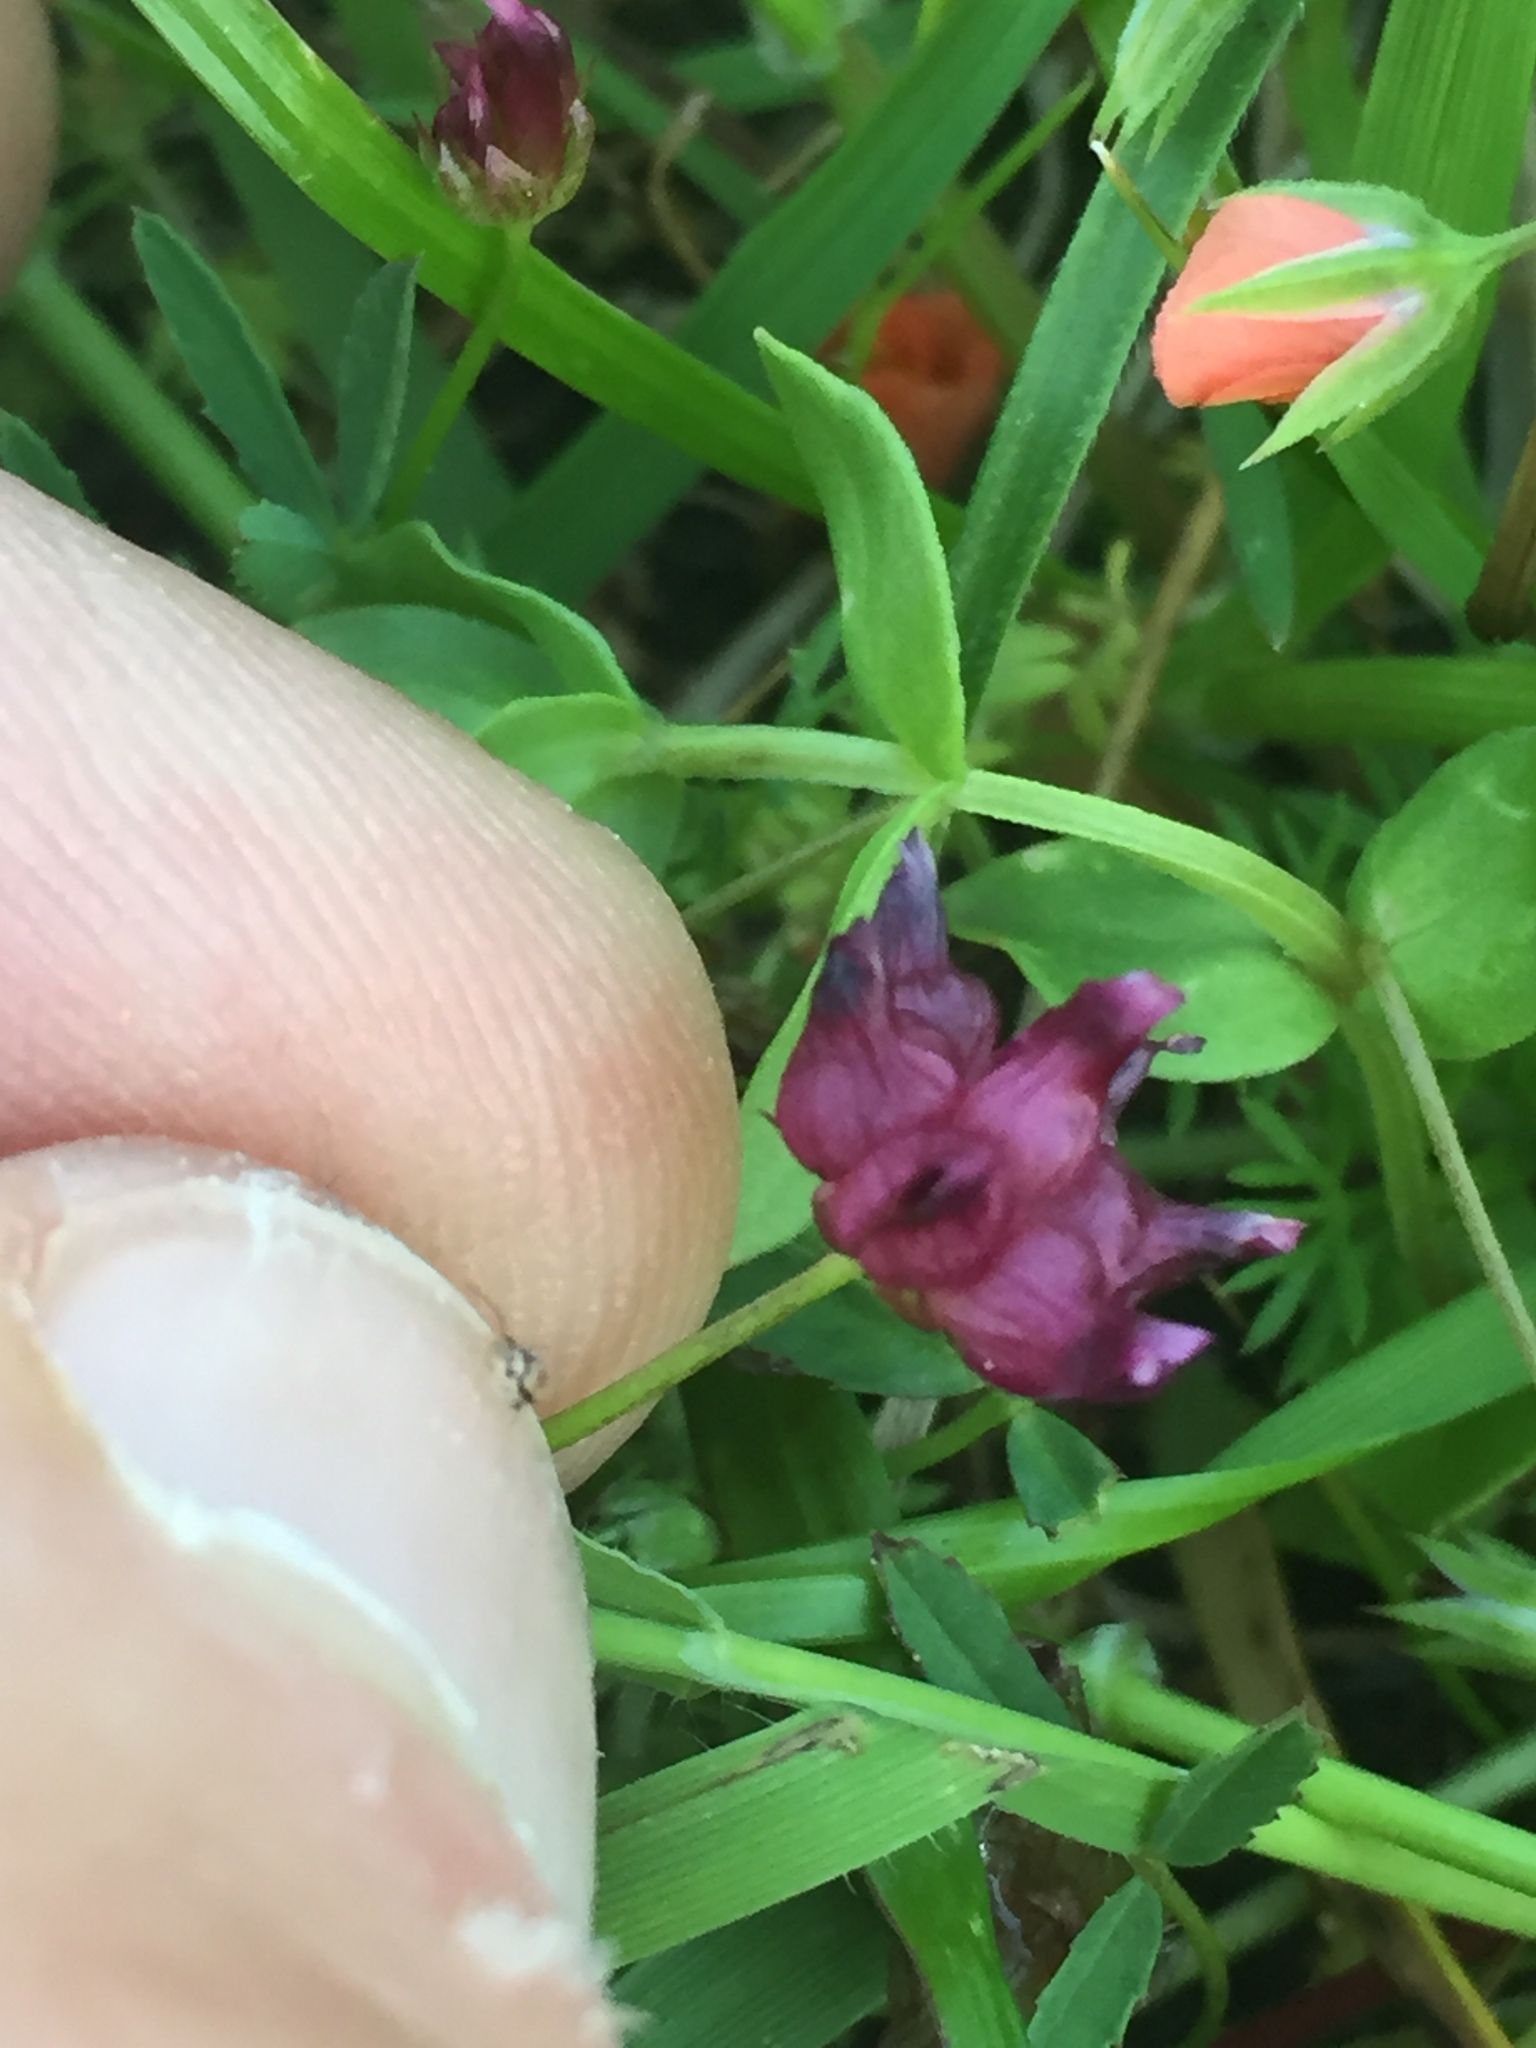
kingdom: Plantae
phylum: Tracheophyta
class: Magnoliopsida
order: Fabales
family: Fabaceae
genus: Trifolium
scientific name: Trifolium depauperatum
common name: Poverty clover
